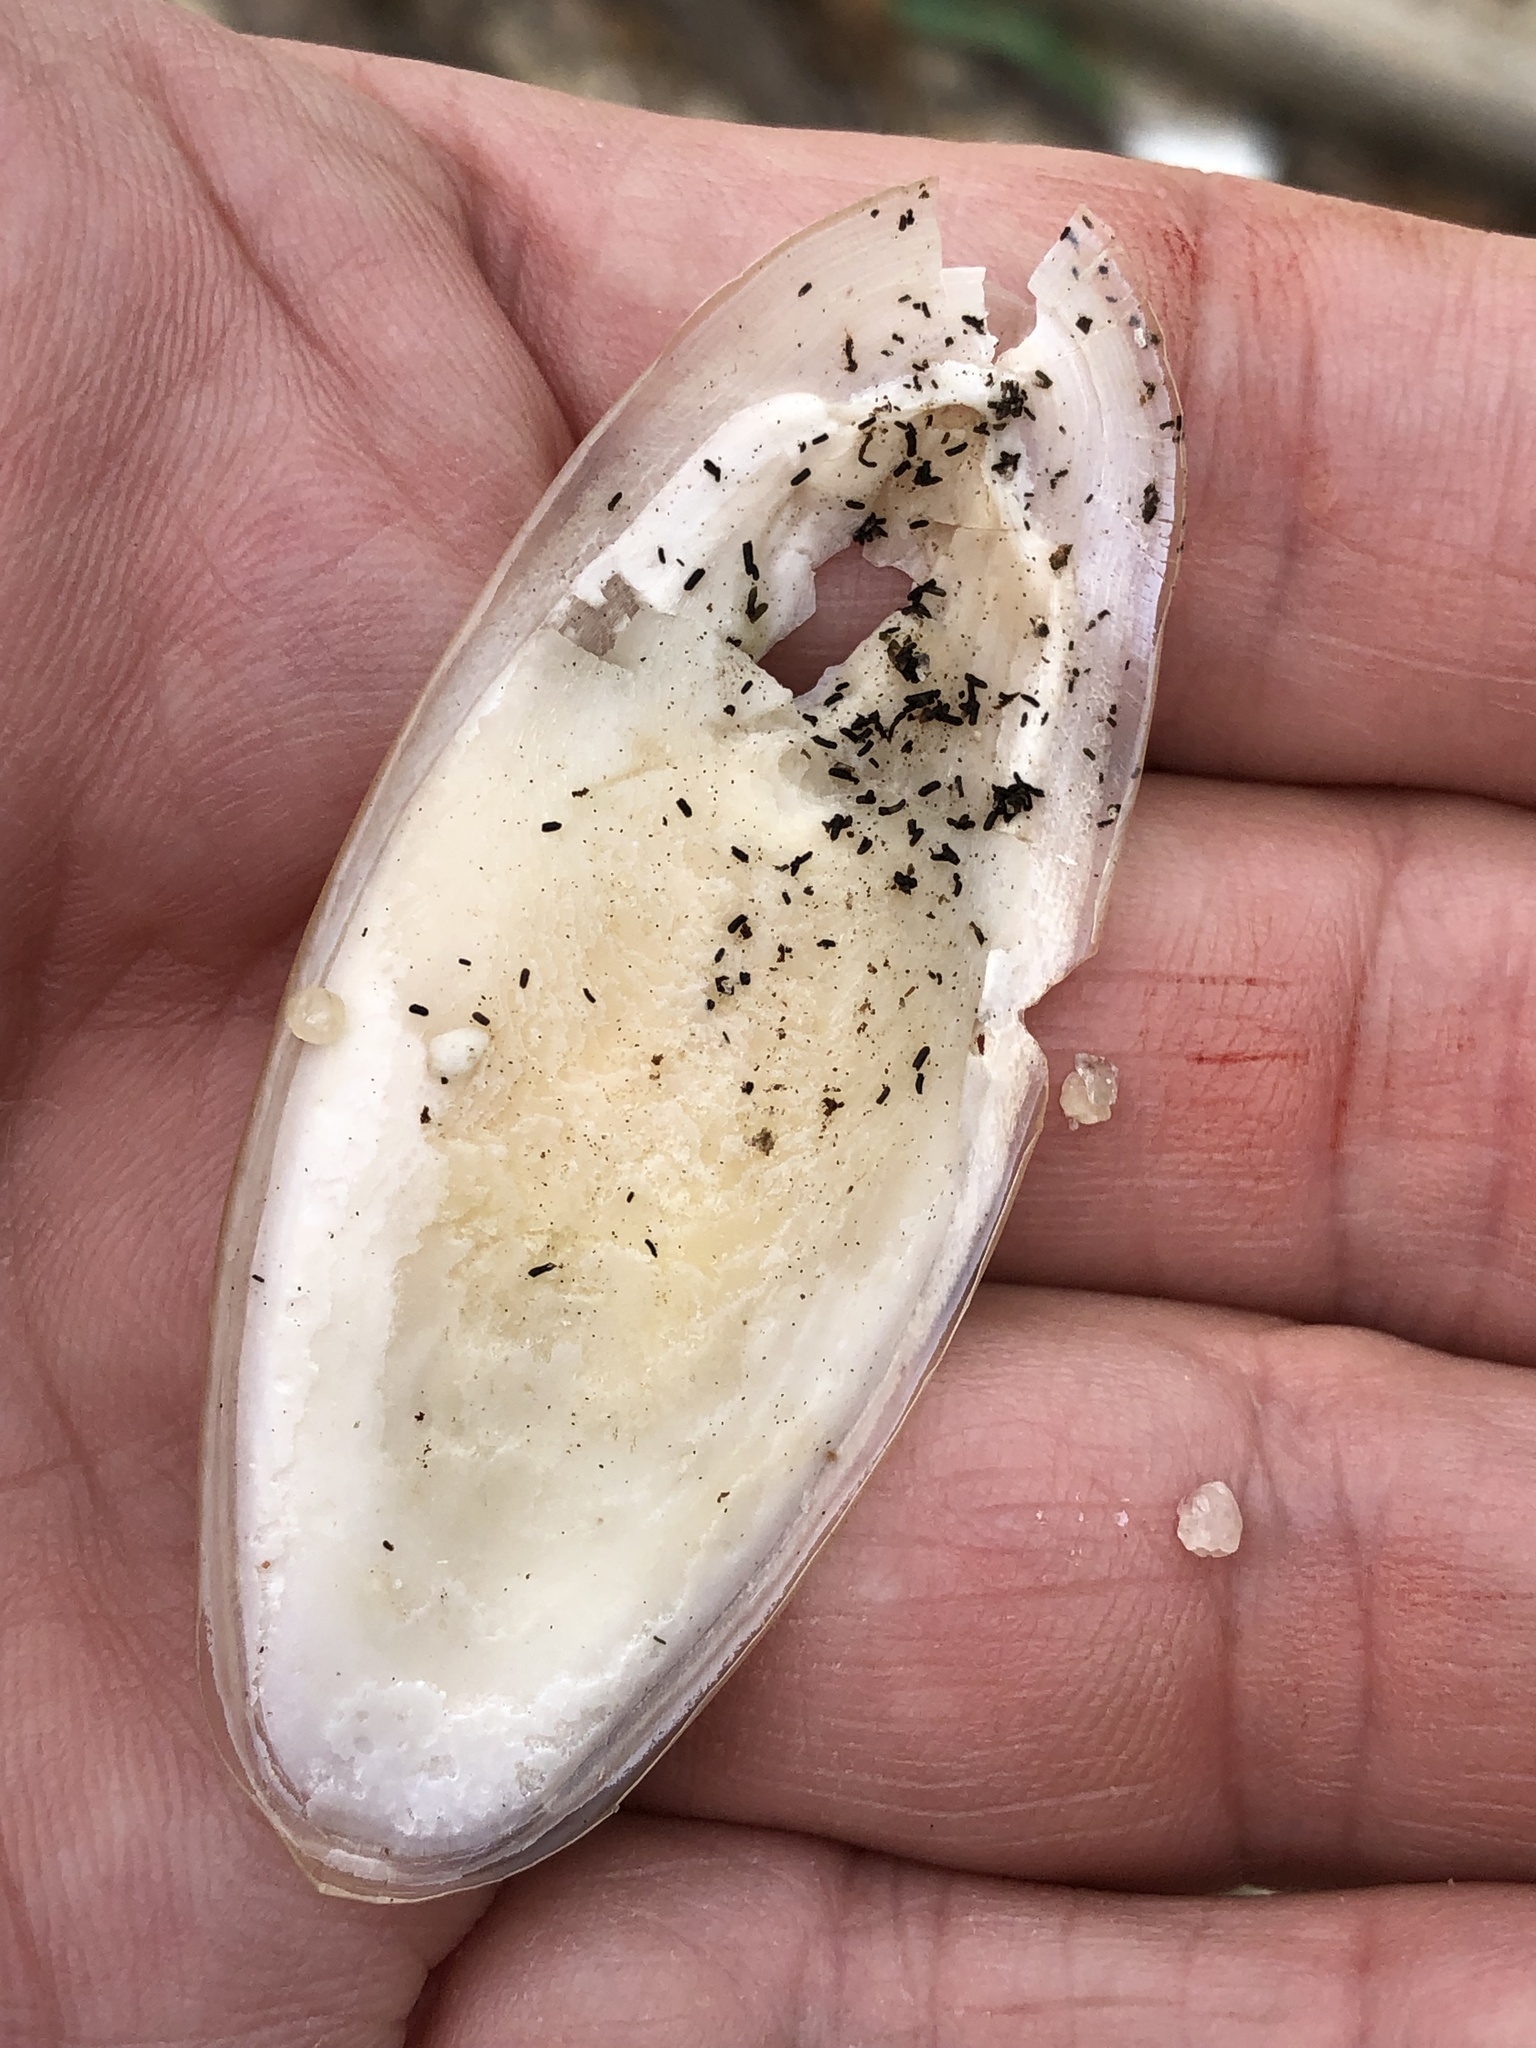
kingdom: Animalia
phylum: Mollusca
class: Cephalopoda
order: Sepiida
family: Sepiidae
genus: Acanthosepion
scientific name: Acanthosepion pharaonis
